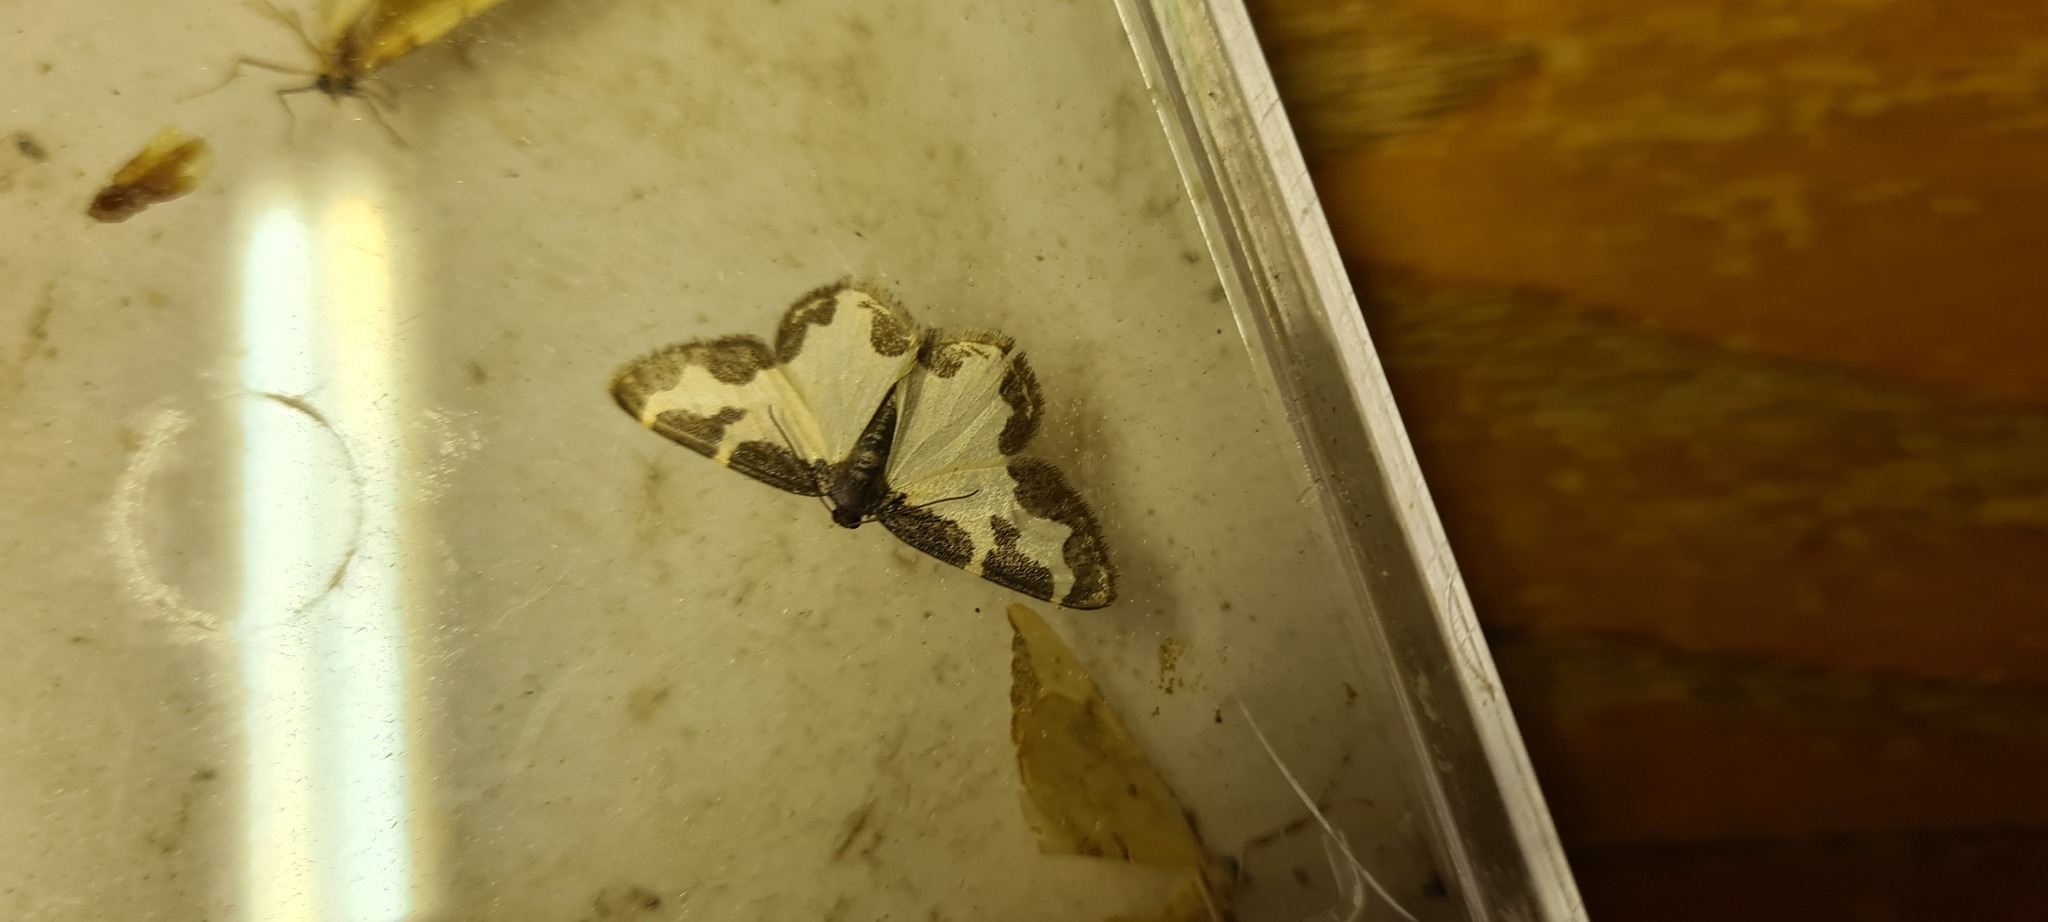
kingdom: Animalia
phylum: Arthropoda
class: Insecta
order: Lepidoptera
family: Geometridae
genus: Lomaspilis
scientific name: Lomaspilis marginata
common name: Clouded border
